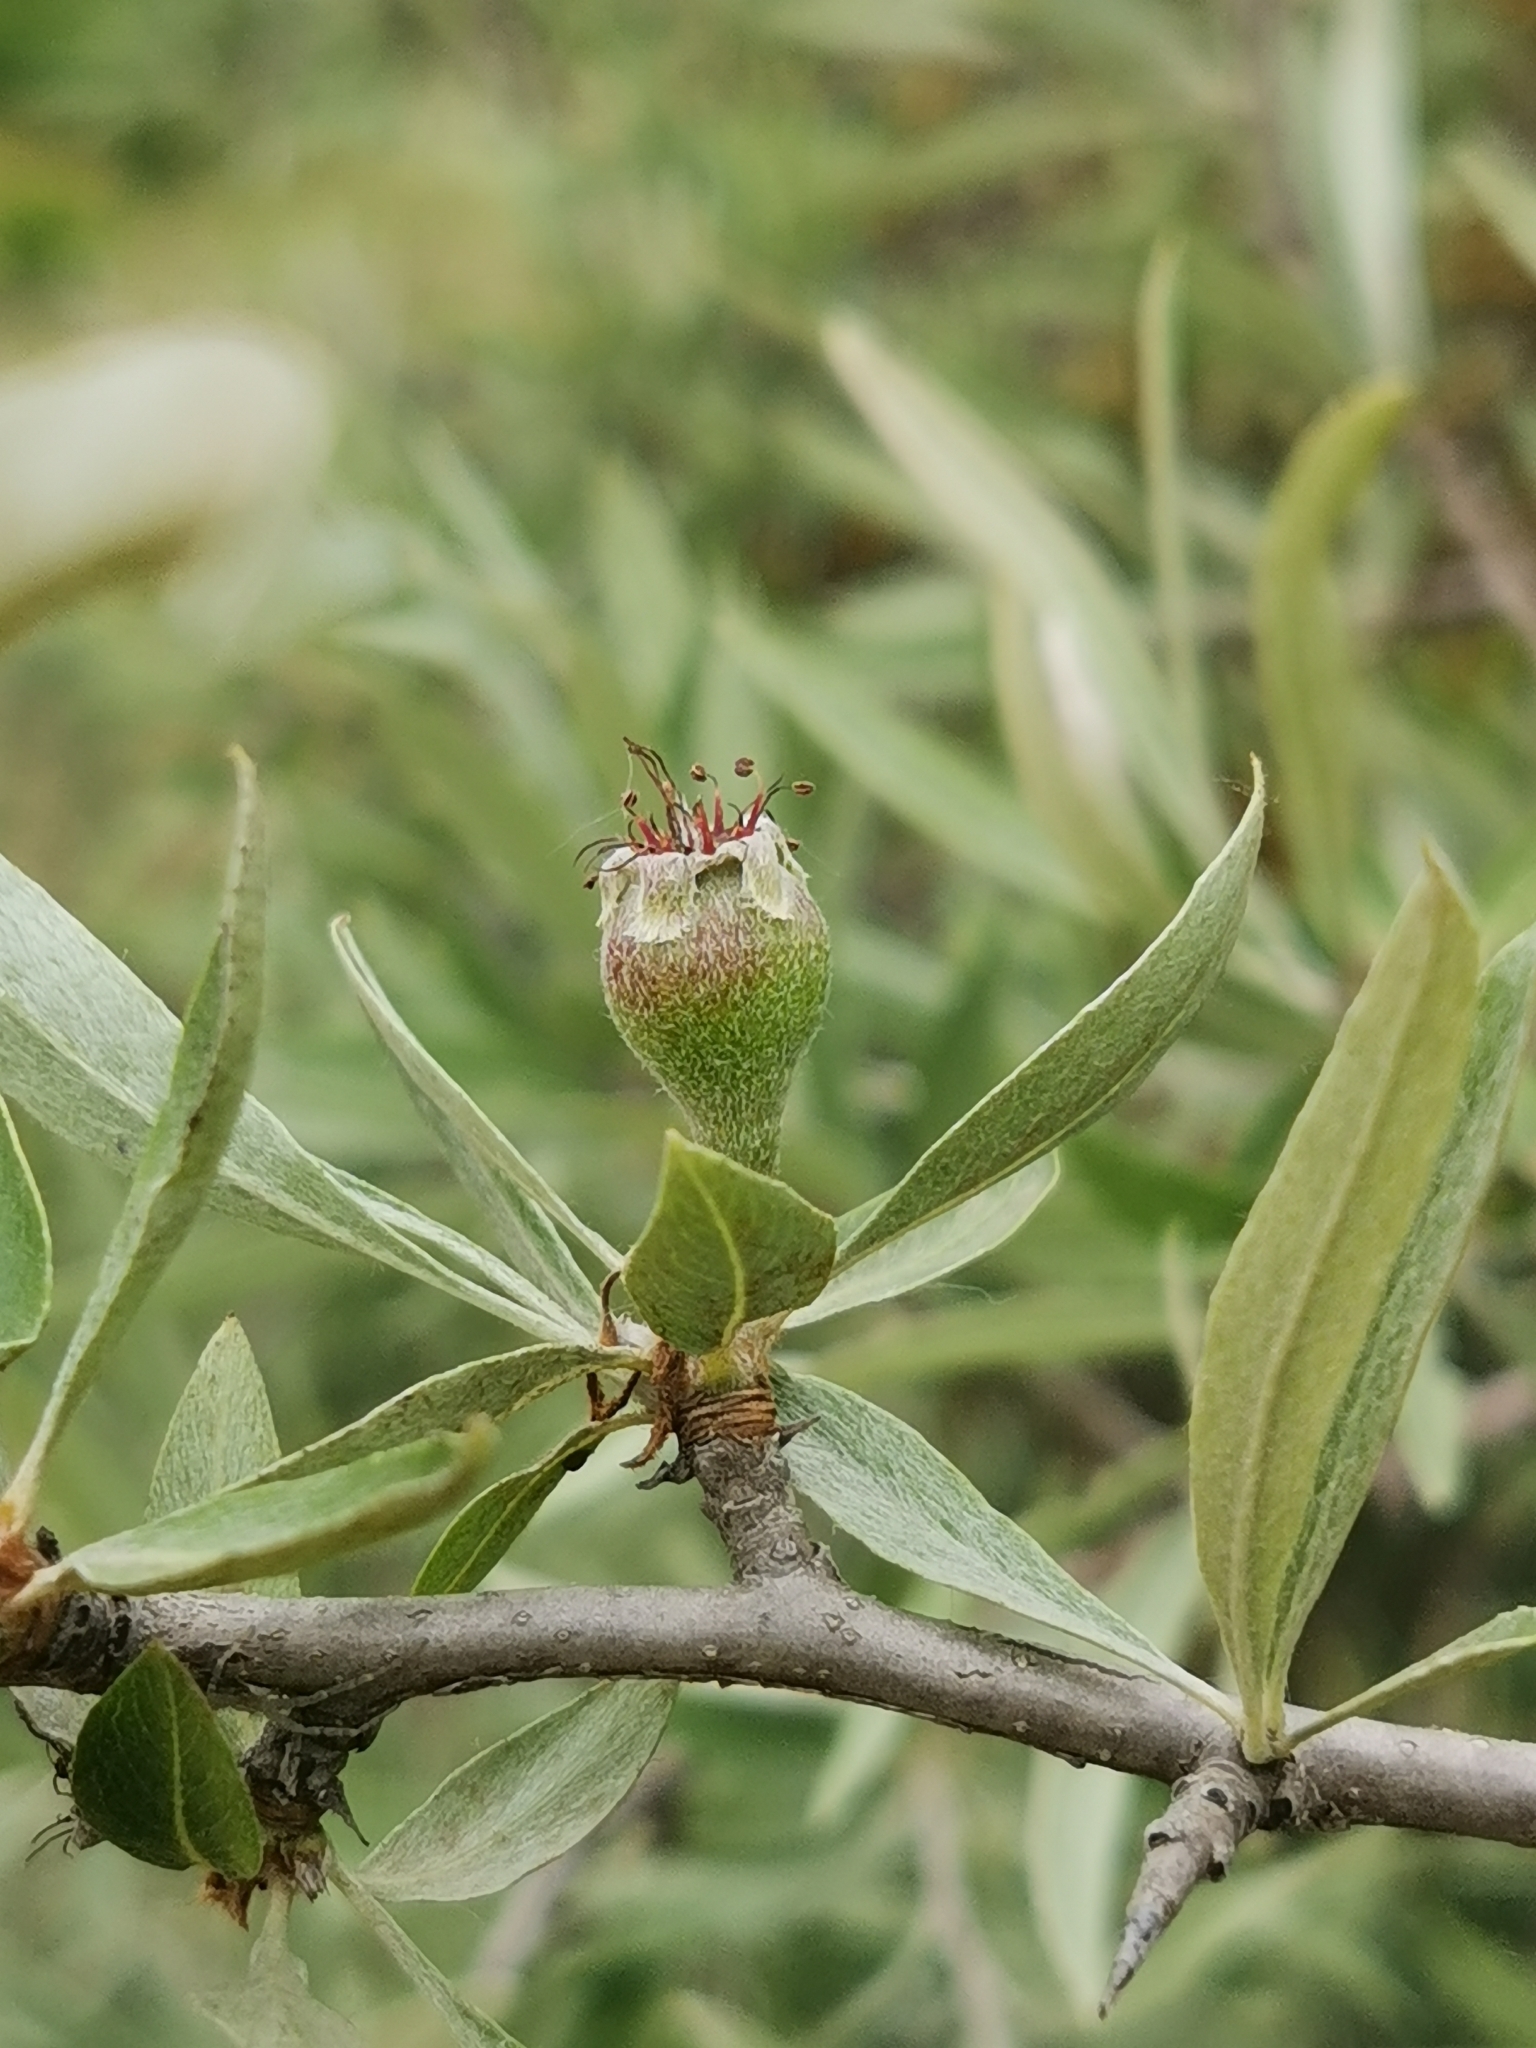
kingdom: Plantae
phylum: Tracheophyta
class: Magnoliopsida
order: Rosales
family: Rosaceae
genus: Pyrus
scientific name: Pyrus salicifolia
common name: Willow-leaved pear
